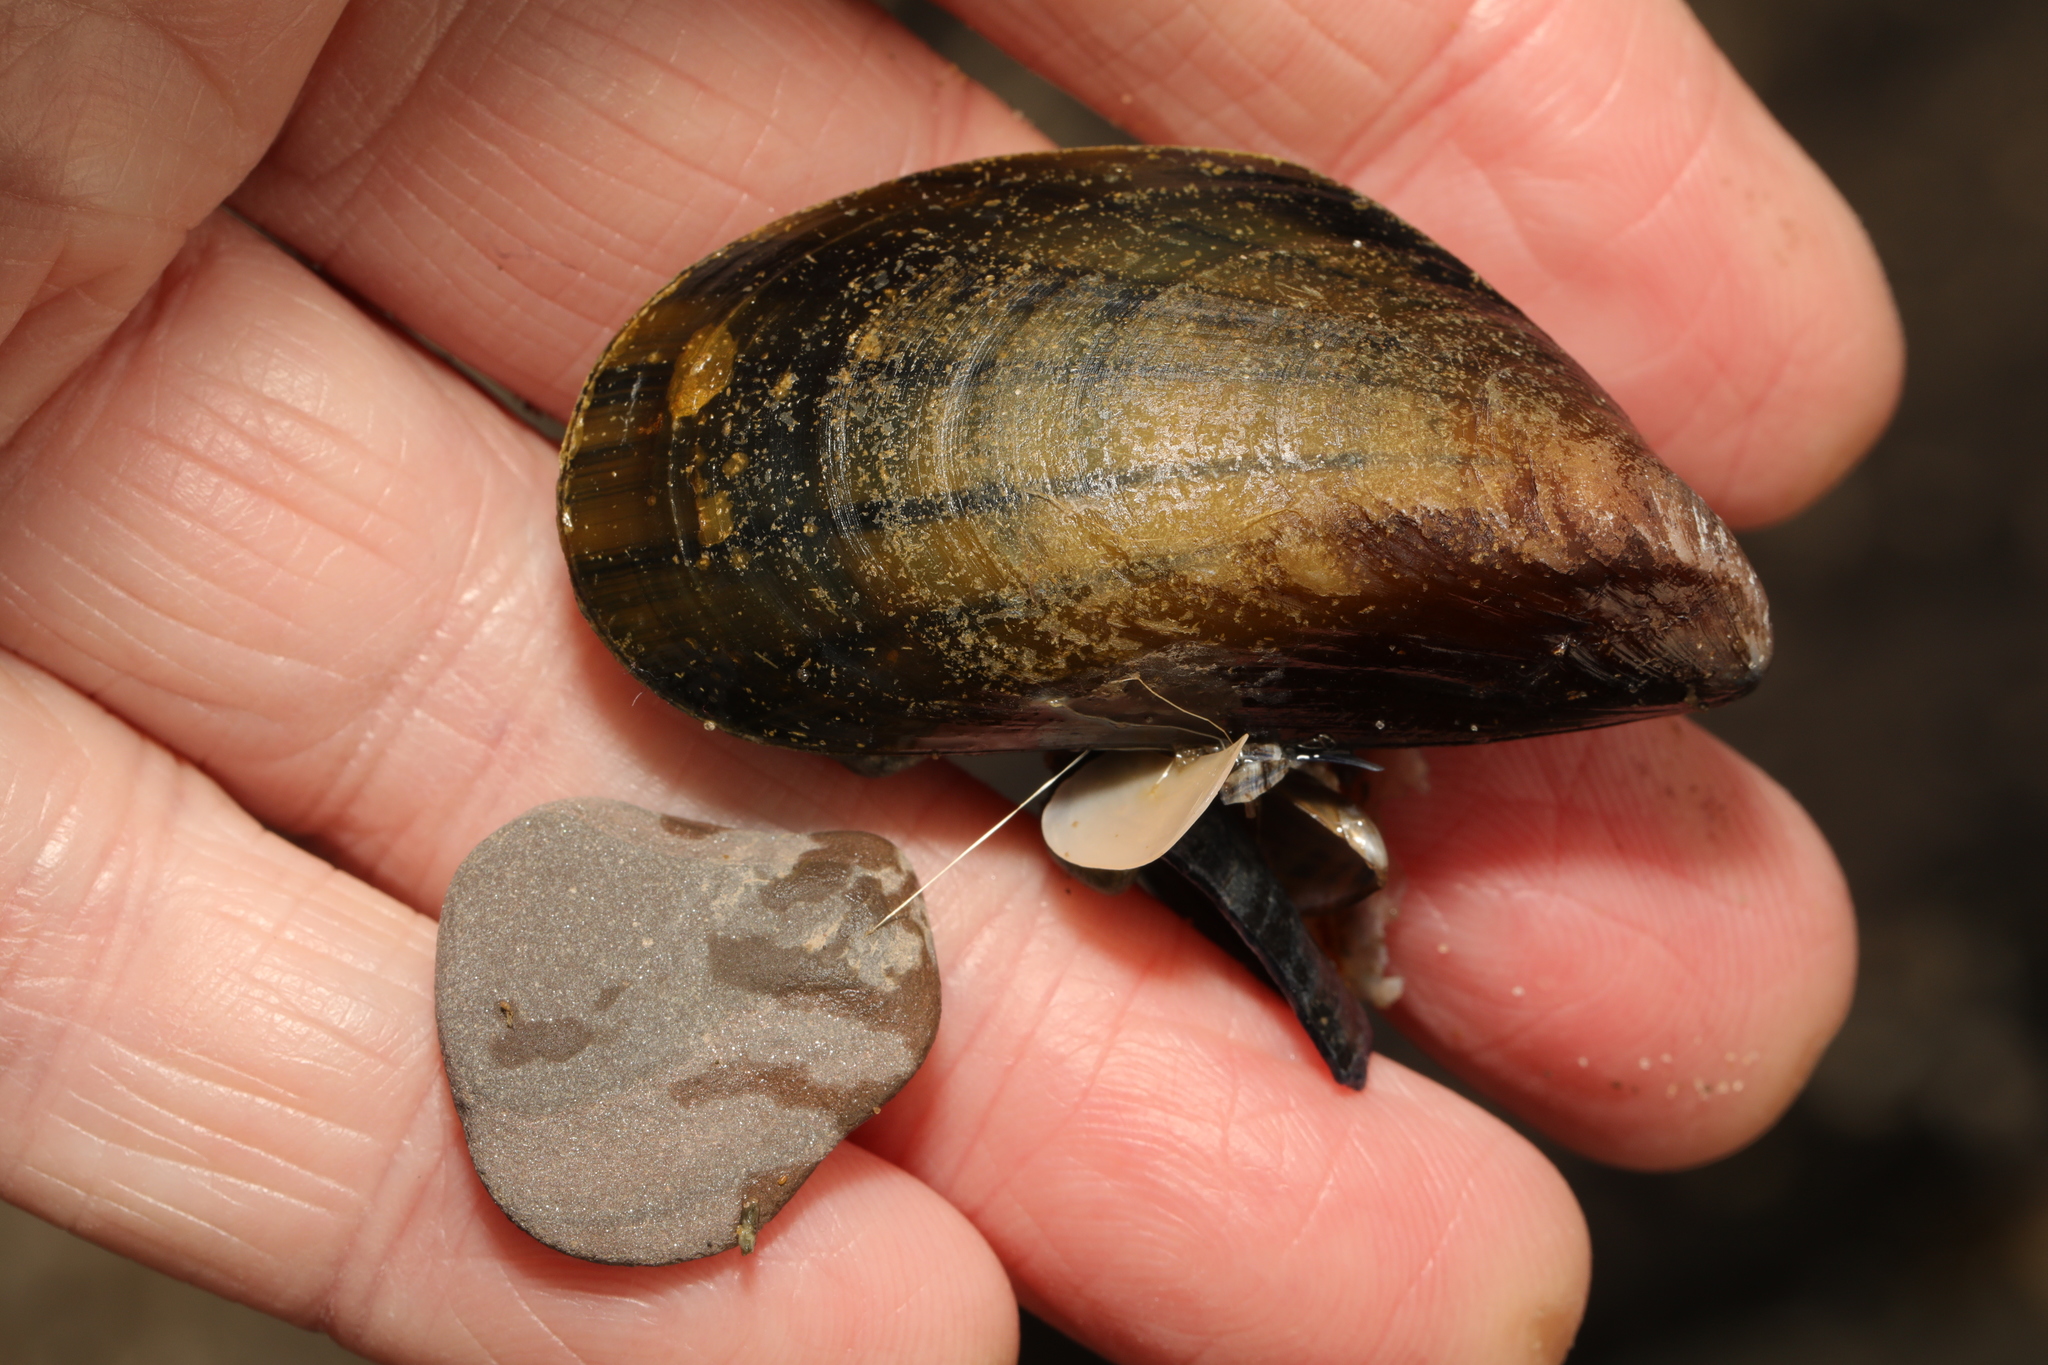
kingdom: Animalia
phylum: Mollusca
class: Bivalvia
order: Mytilida
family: Mytilidae
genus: Mytilus
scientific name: Mytilus edulis
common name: Blue mussel
